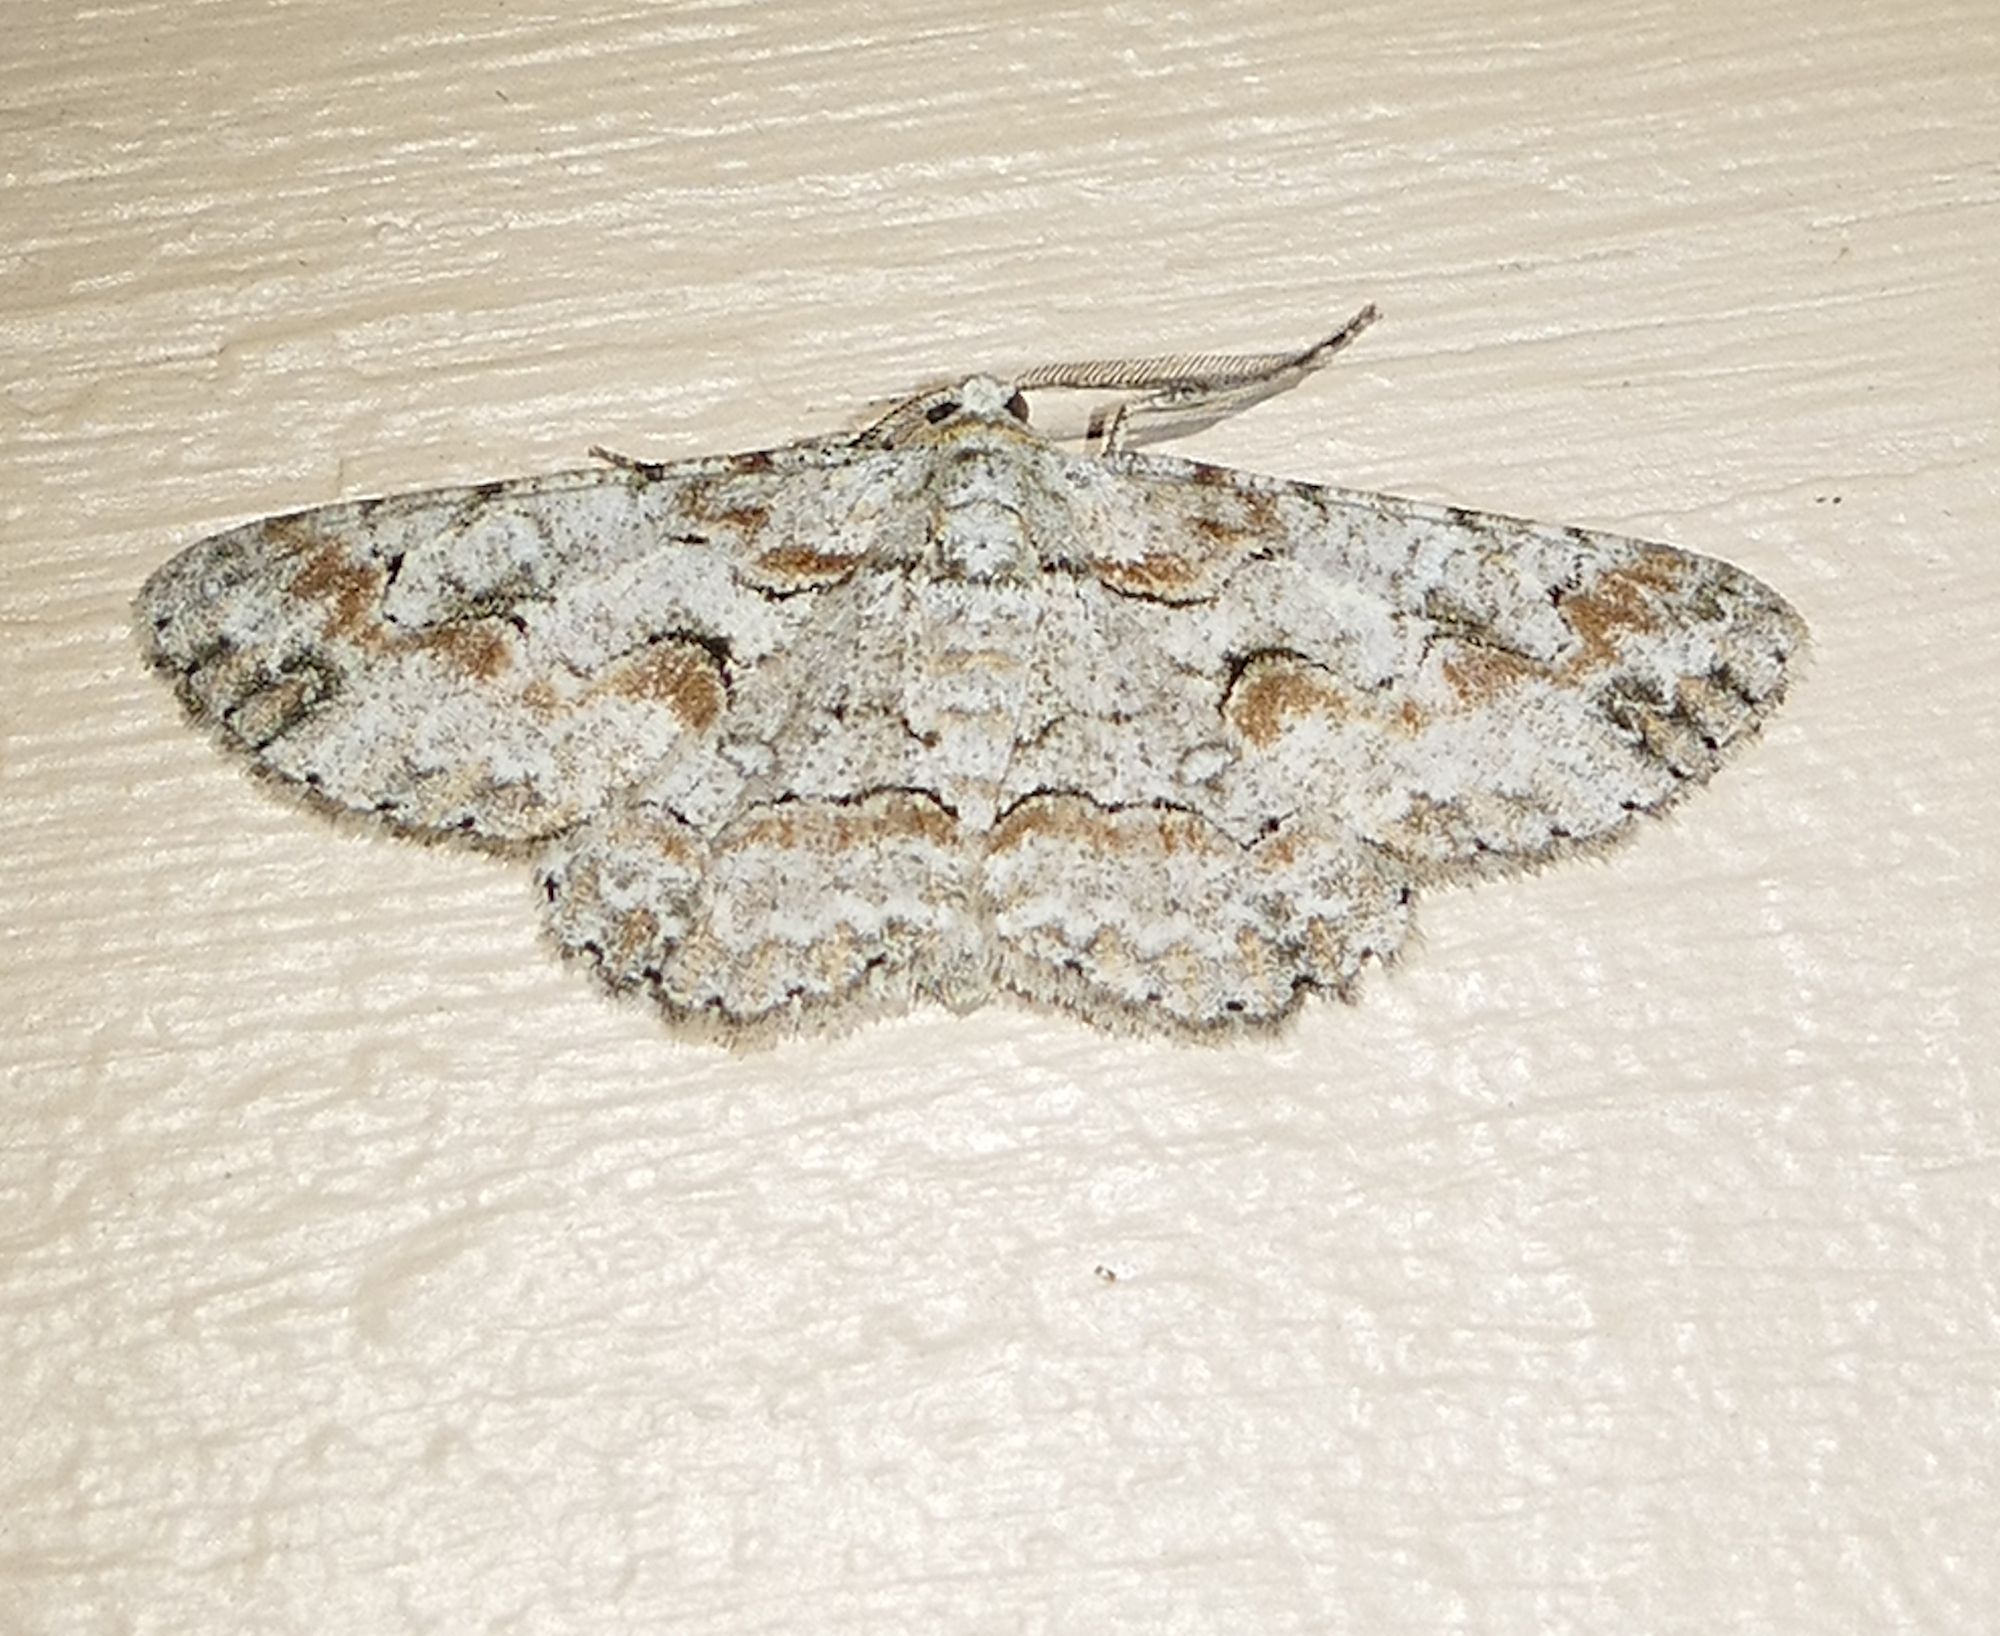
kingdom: Animalia
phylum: Arthropoda
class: Insecta
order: Lepidoptera
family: Geometridae
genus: Iridopsis
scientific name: Iridopsis defectaria
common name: Brown-shaded gray
